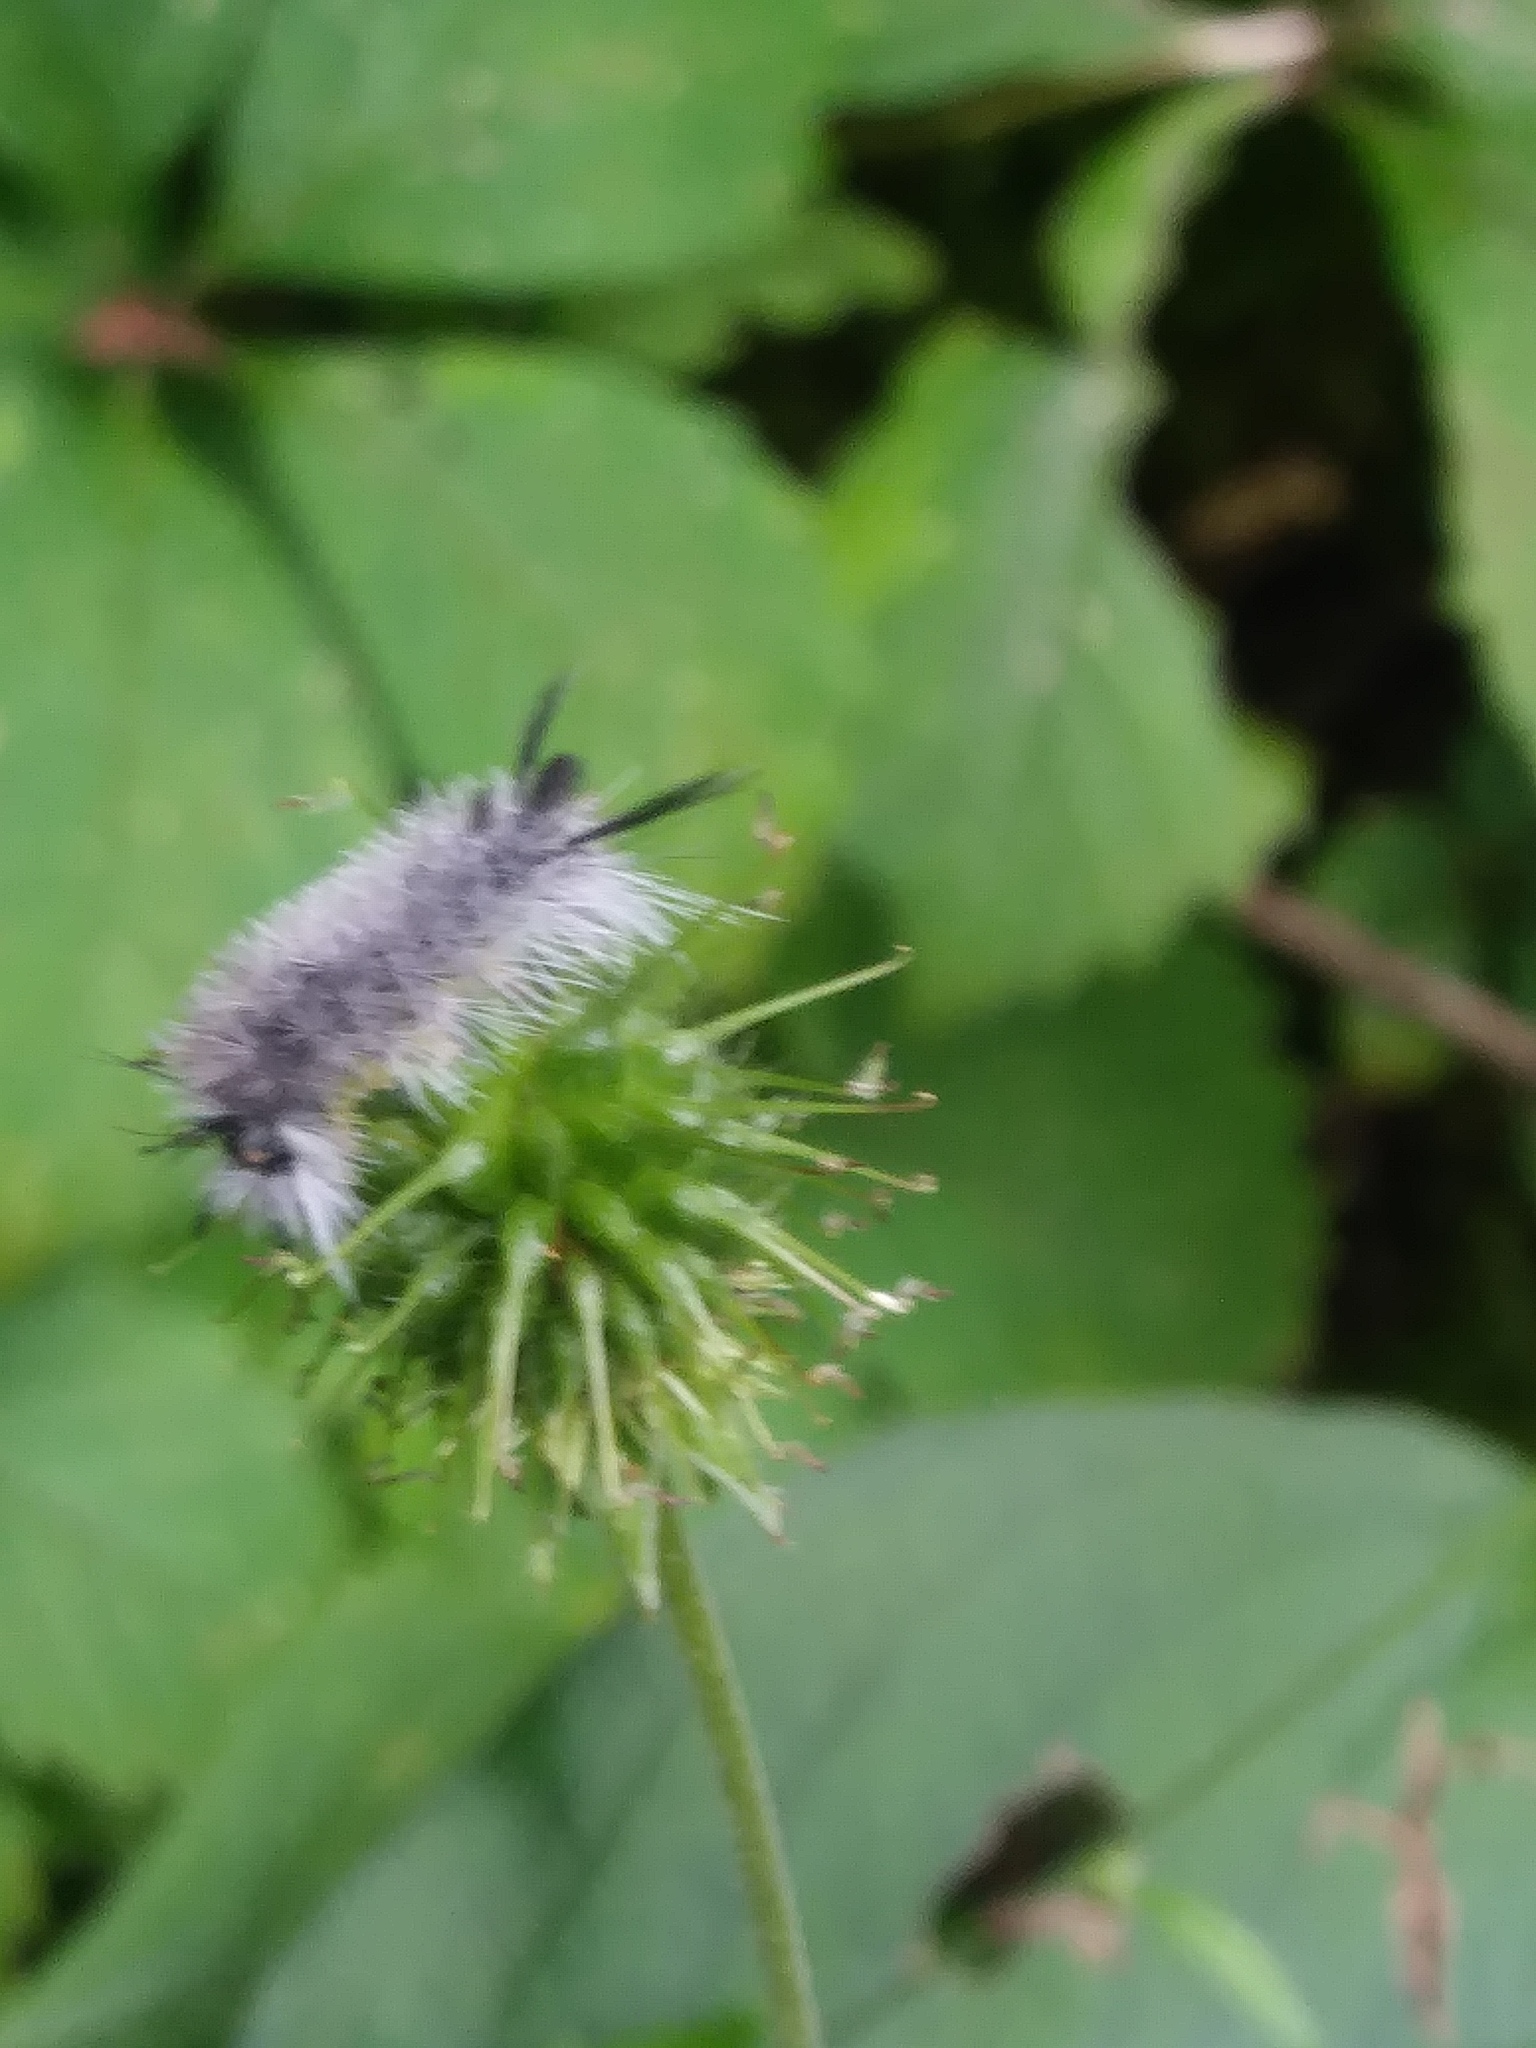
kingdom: Animalia
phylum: Arthropoda
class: Insecta
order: Lepidoptera
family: Erebidae
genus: Halysidota
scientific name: Halysidota tessellaris
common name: Banded tussock moth
